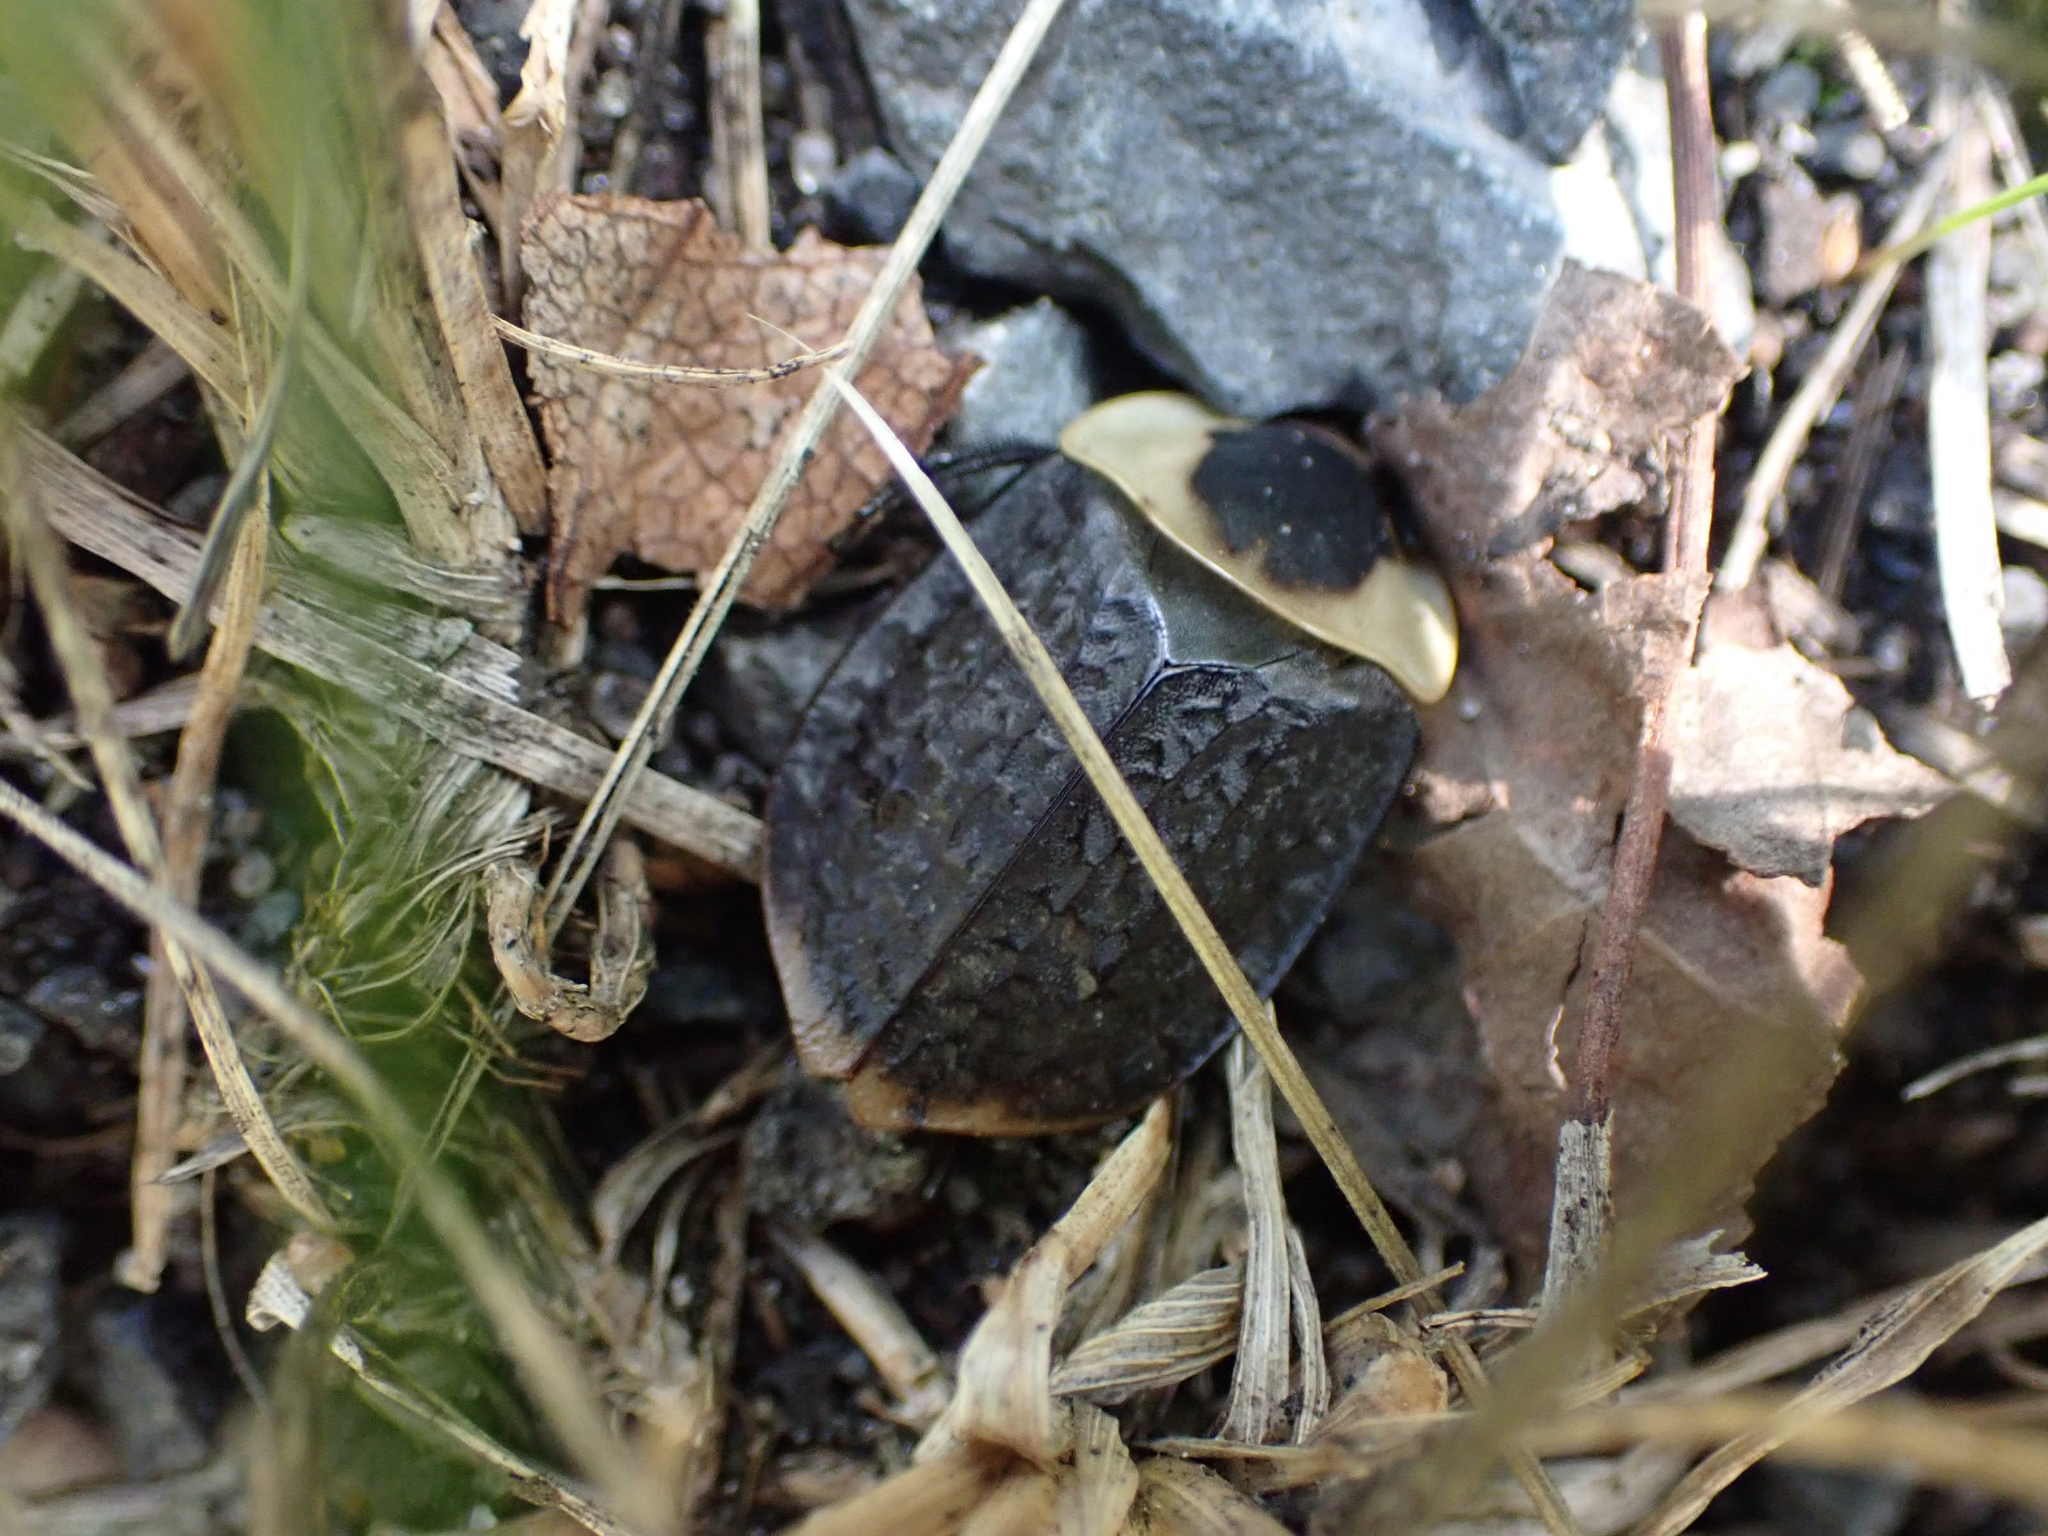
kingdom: Animalia
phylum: Arthropoda
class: Insecta
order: Coleoptera
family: Staphylinidae
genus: Necrophila
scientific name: Necrophila americana
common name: American carrion beetle
